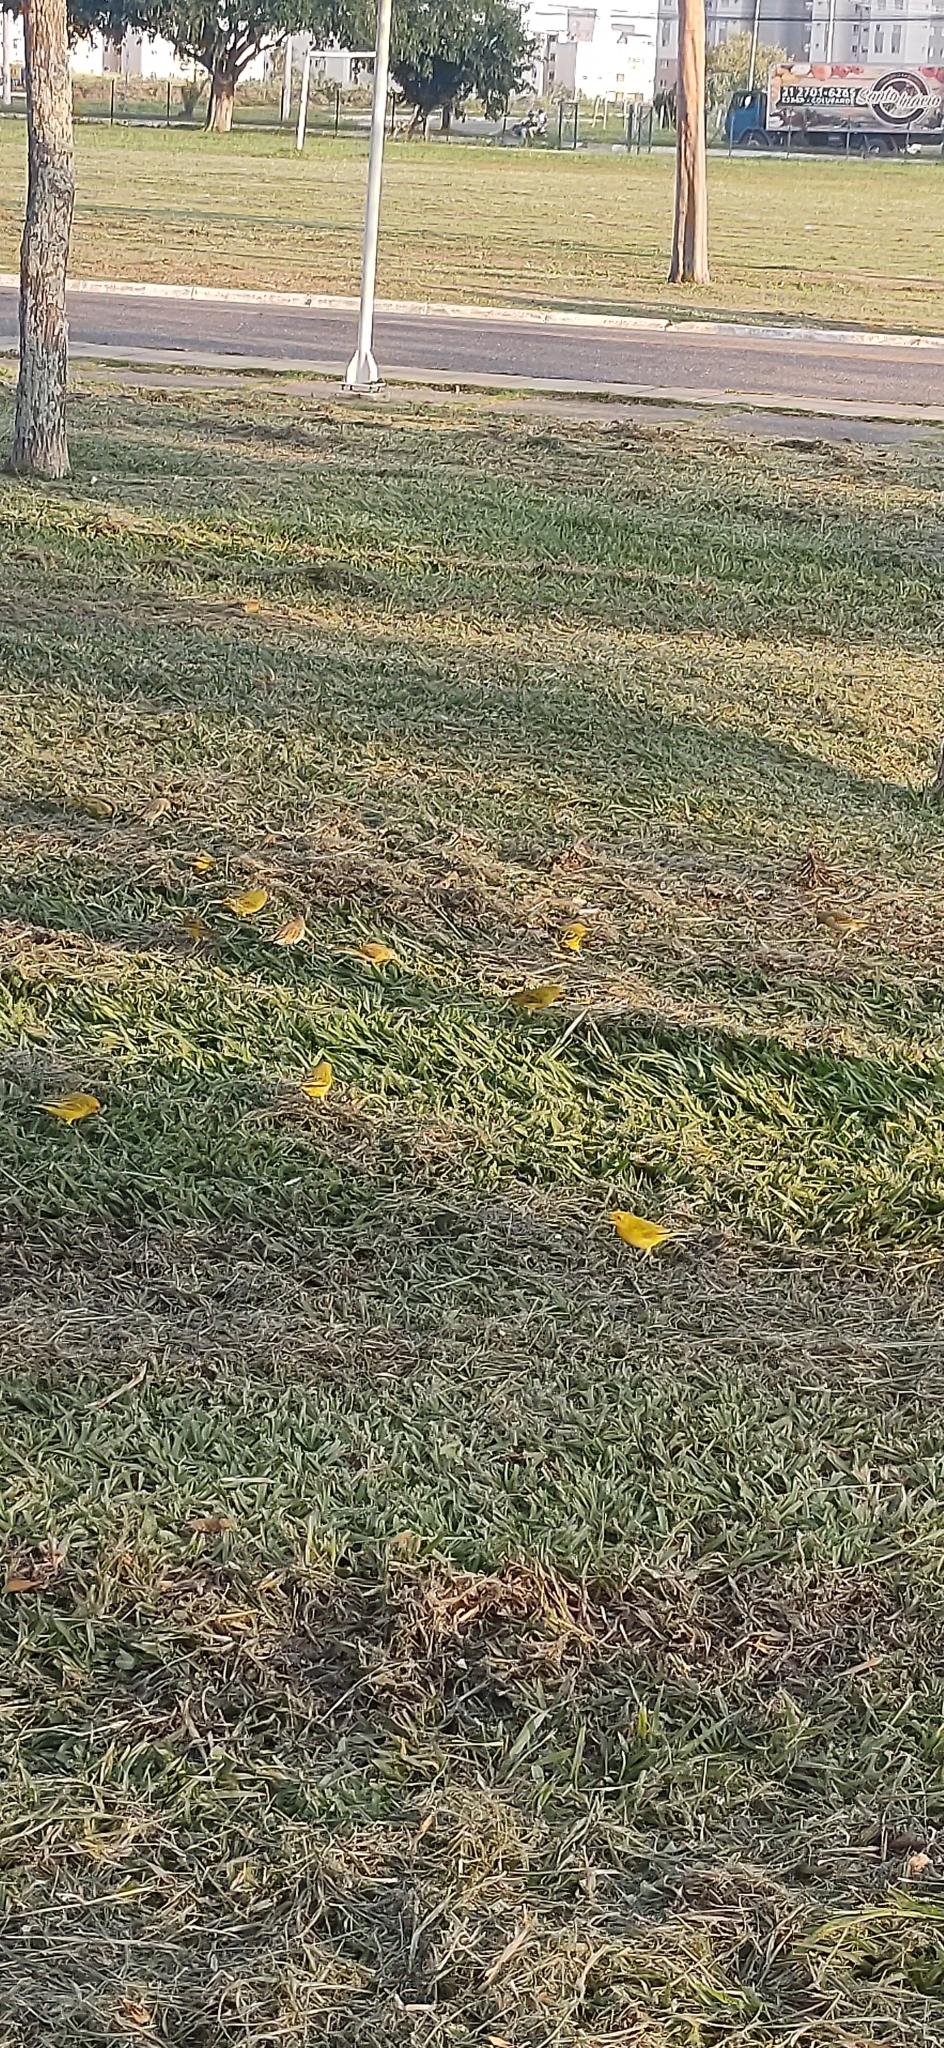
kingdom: Animalia
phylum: Chordata
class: Aves
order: Passeriformes
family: Thraupidae
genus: Sicalis
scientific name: Sicalis flaveola
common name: Saffron finch
